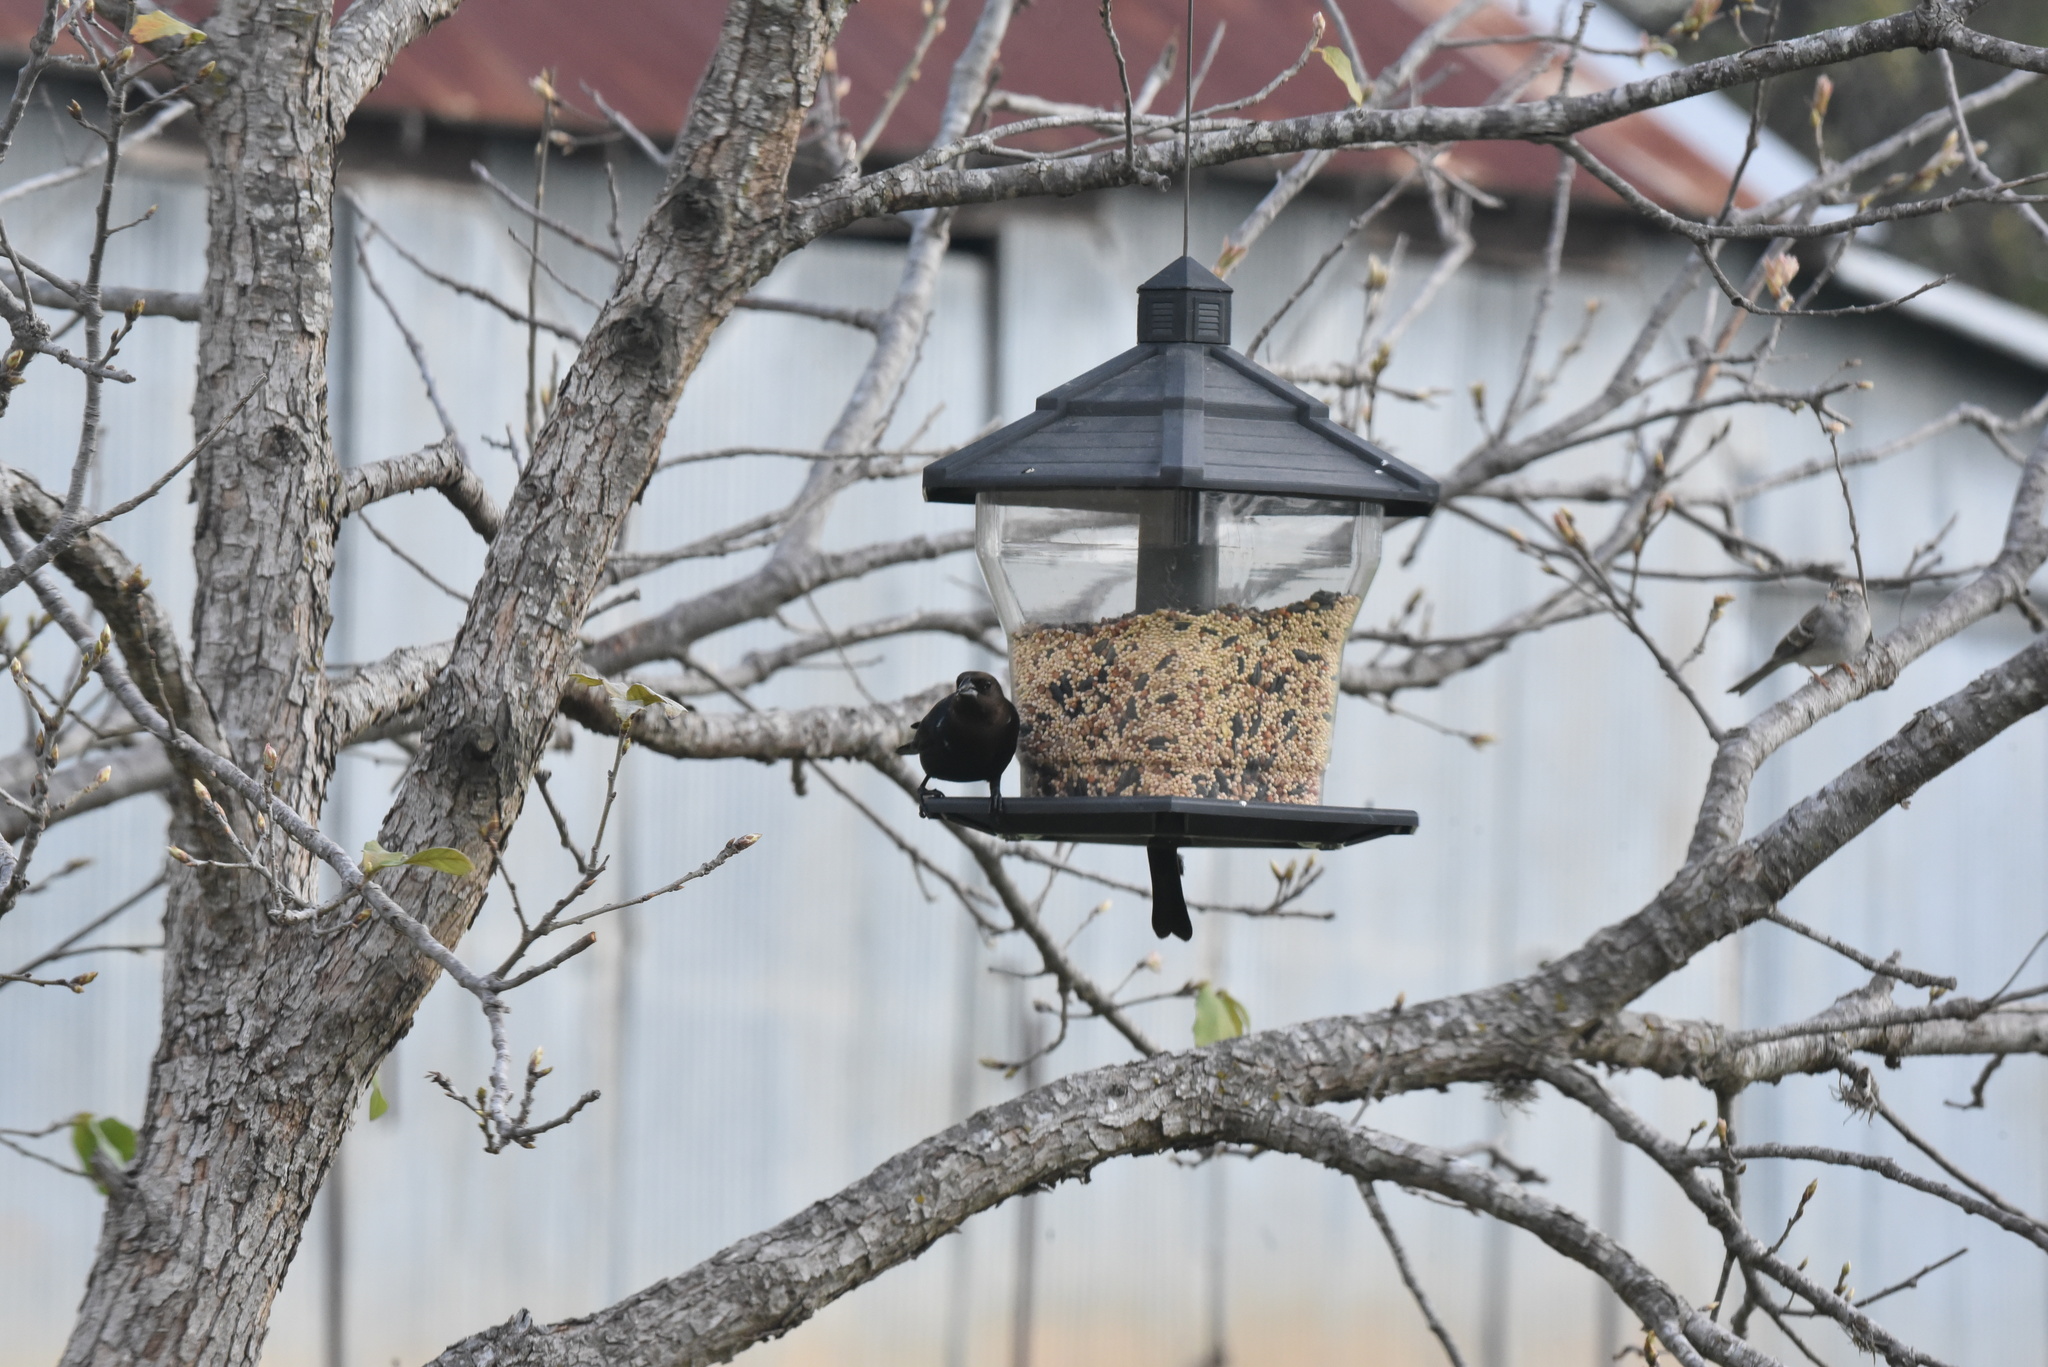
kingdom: Animalia
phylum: Chordata
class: Aves
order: Passeriformes
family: Icteridae
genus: Molothrus
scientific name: Molothrus ater
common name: Brown-headed cowbird
